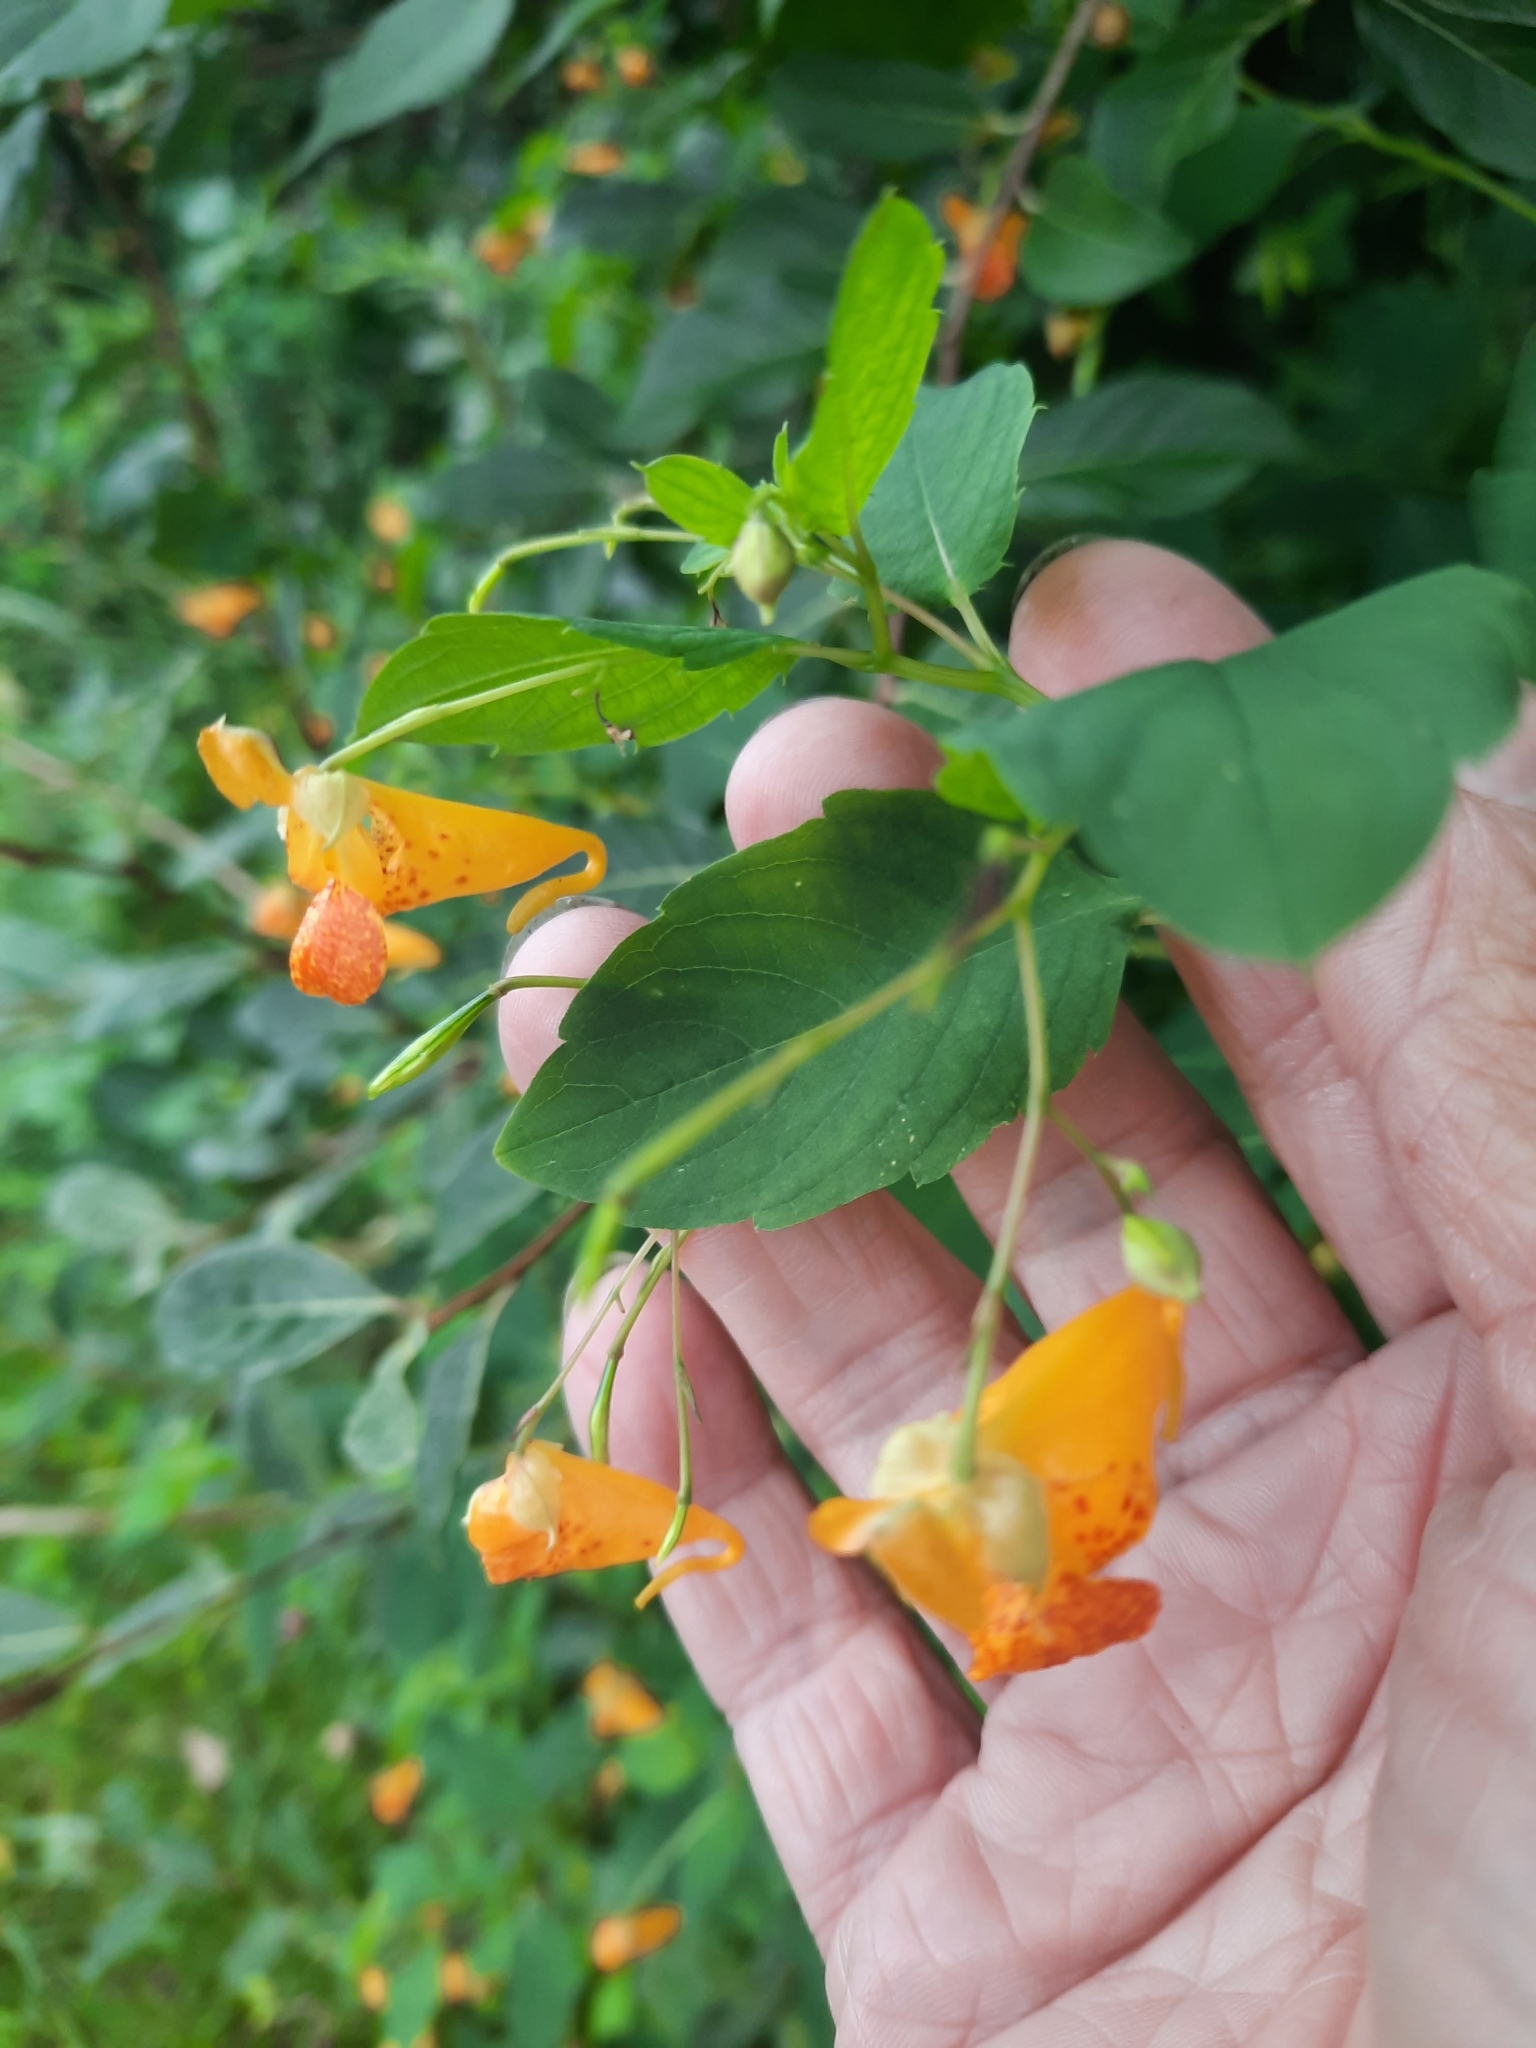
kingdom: Plantae
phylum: Tracheophyta
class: Magnoliopsida
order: Ericales
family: Balsaminaceae
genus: Impatiens
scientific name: Impatiens capensis
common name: Orange balsam
